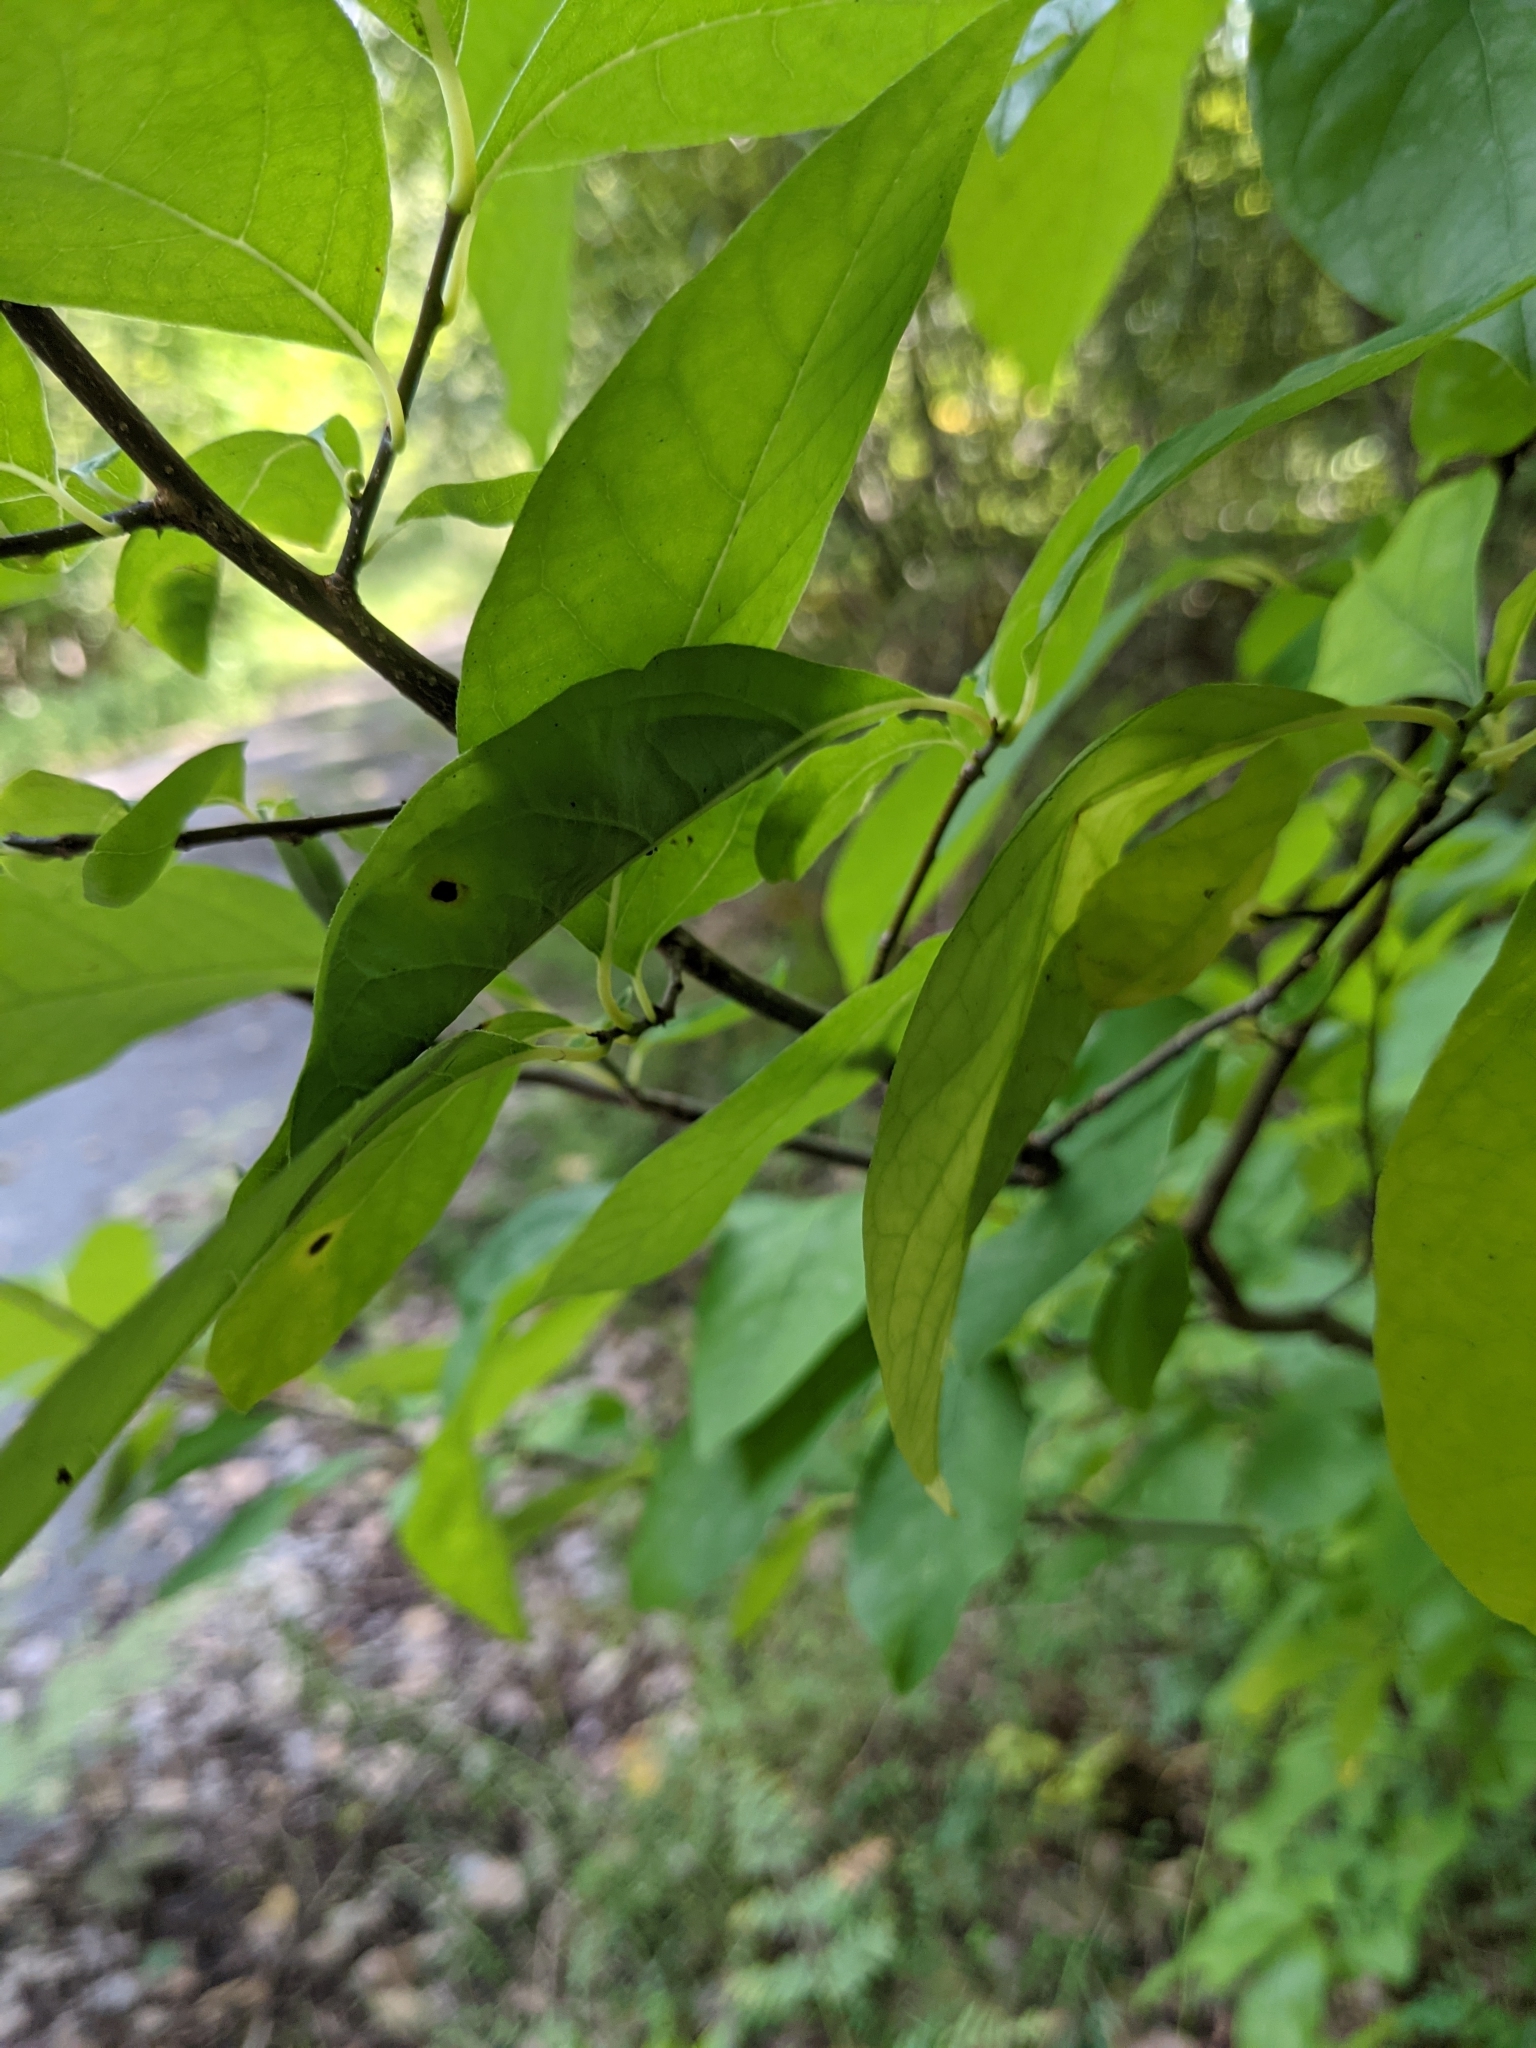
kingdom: Animalia
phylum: Arthropoda
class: Insecta
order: Lepidoptera
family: Papilionidae
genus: Papilio
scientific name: Papilio troilus
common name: Spicebush swallowtail
